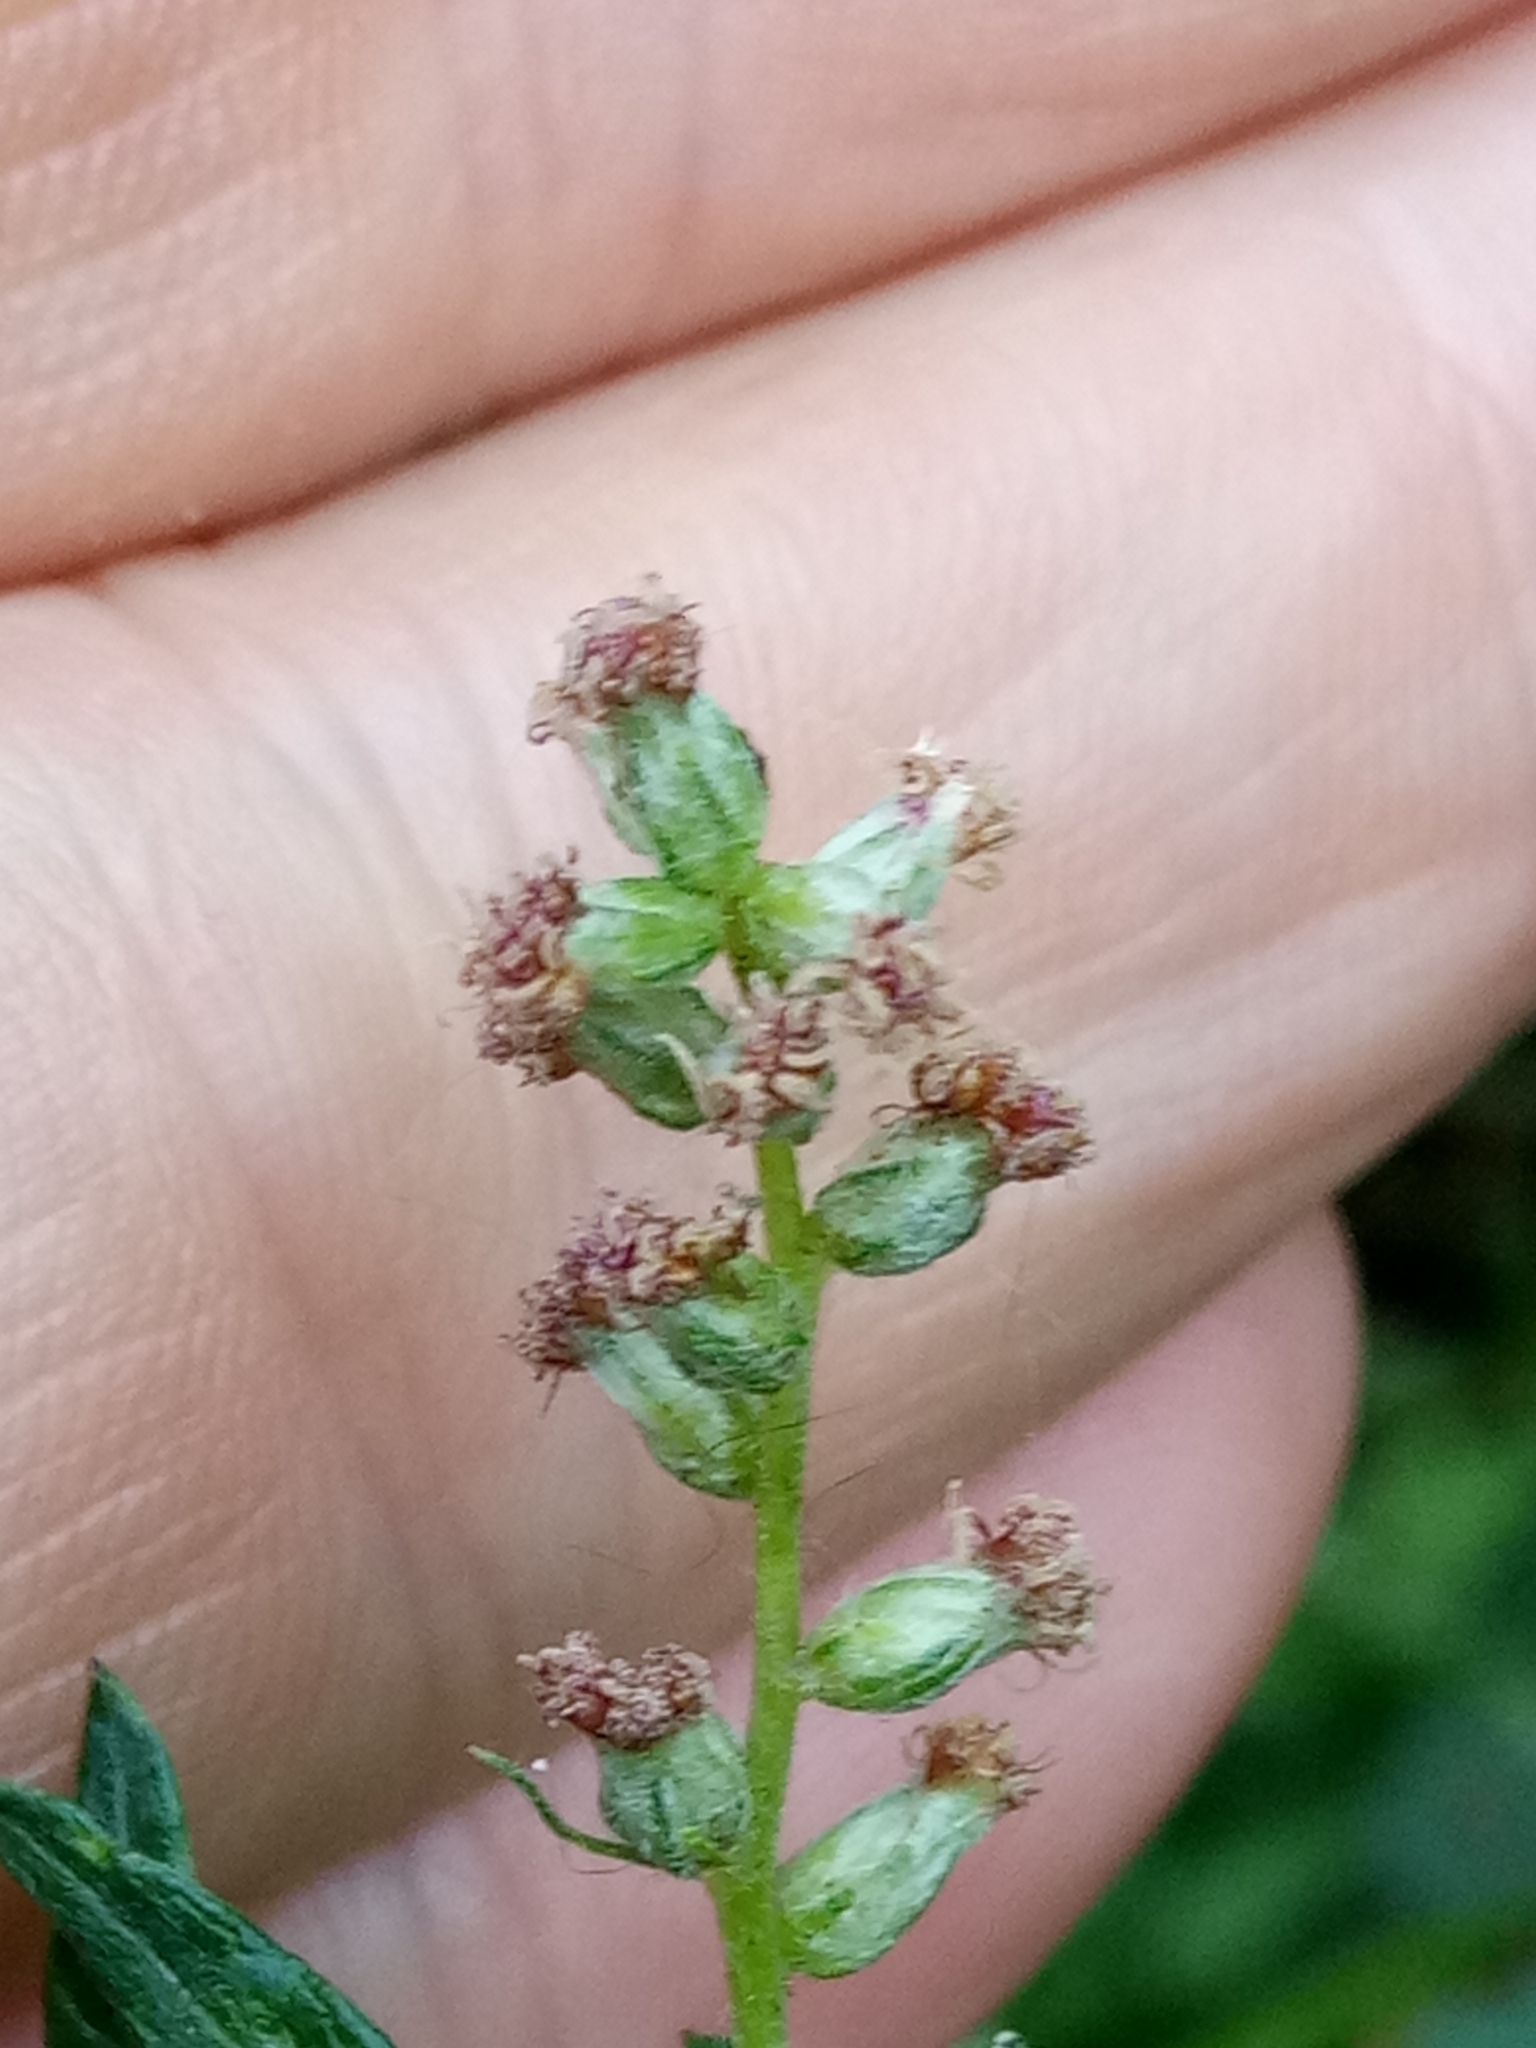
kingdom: Plantae
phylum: Tracheophyta
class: Magnoliopsida
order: Asterales
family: Asteraceae
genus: Artemisia
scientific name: Artemisia vulgaris
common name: Mugwort
